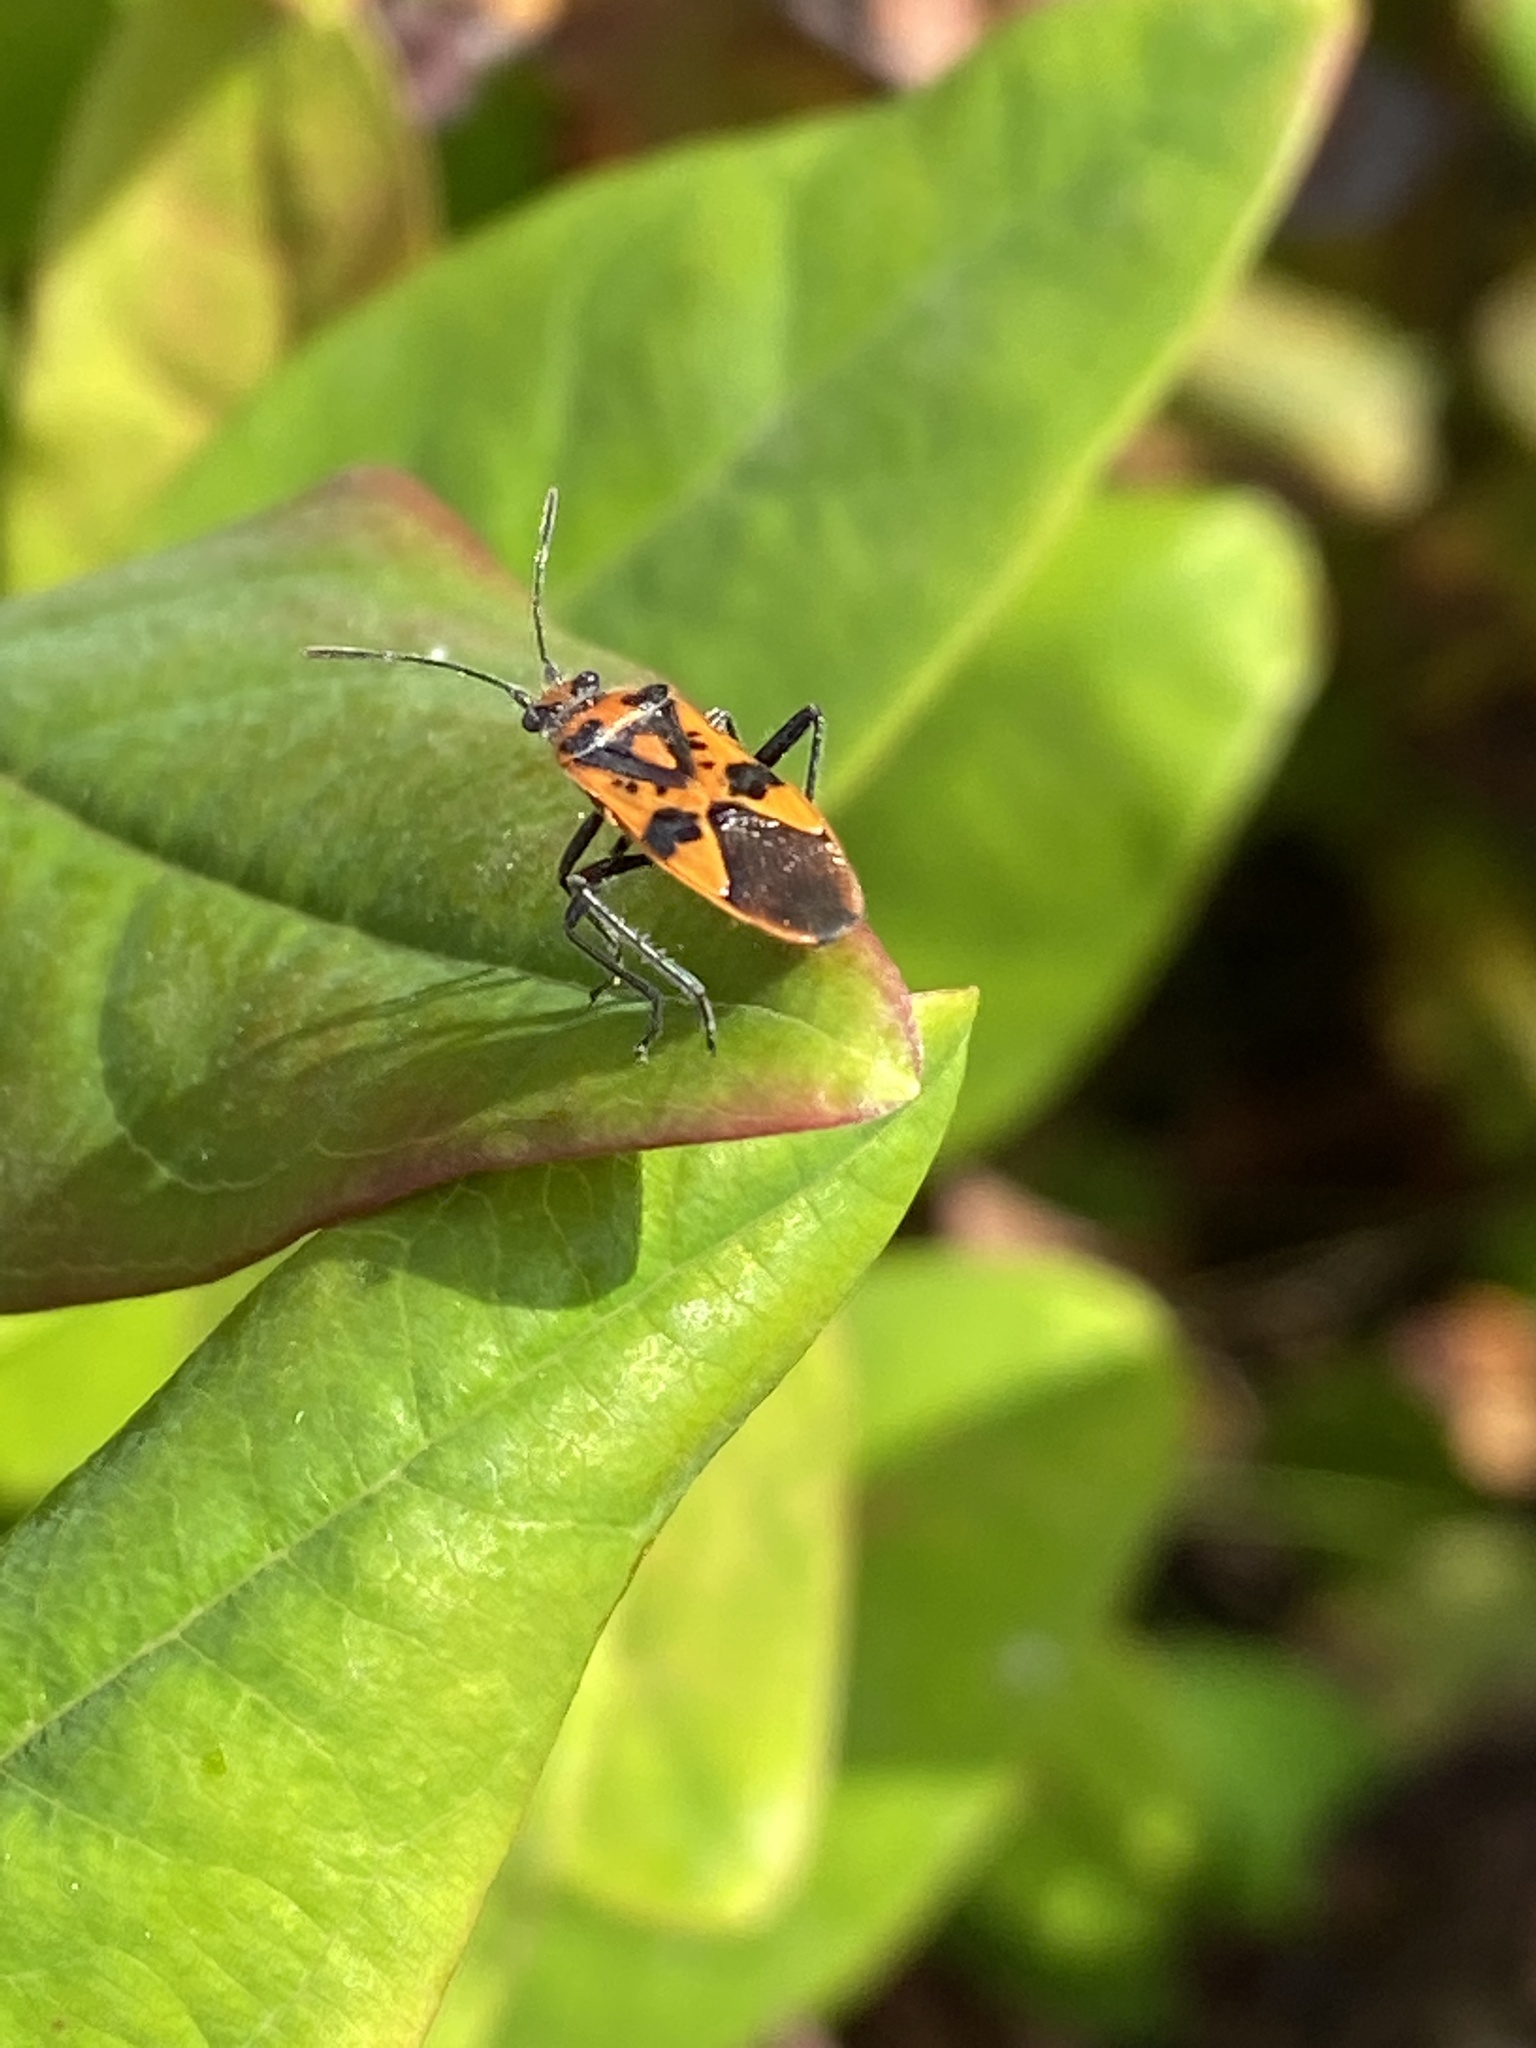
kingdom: Animalia
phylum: Arthropoda
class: Insecta
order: Hemiptera
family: Rhopalidae
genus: Corizus
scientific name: Corizus hyoscyami
